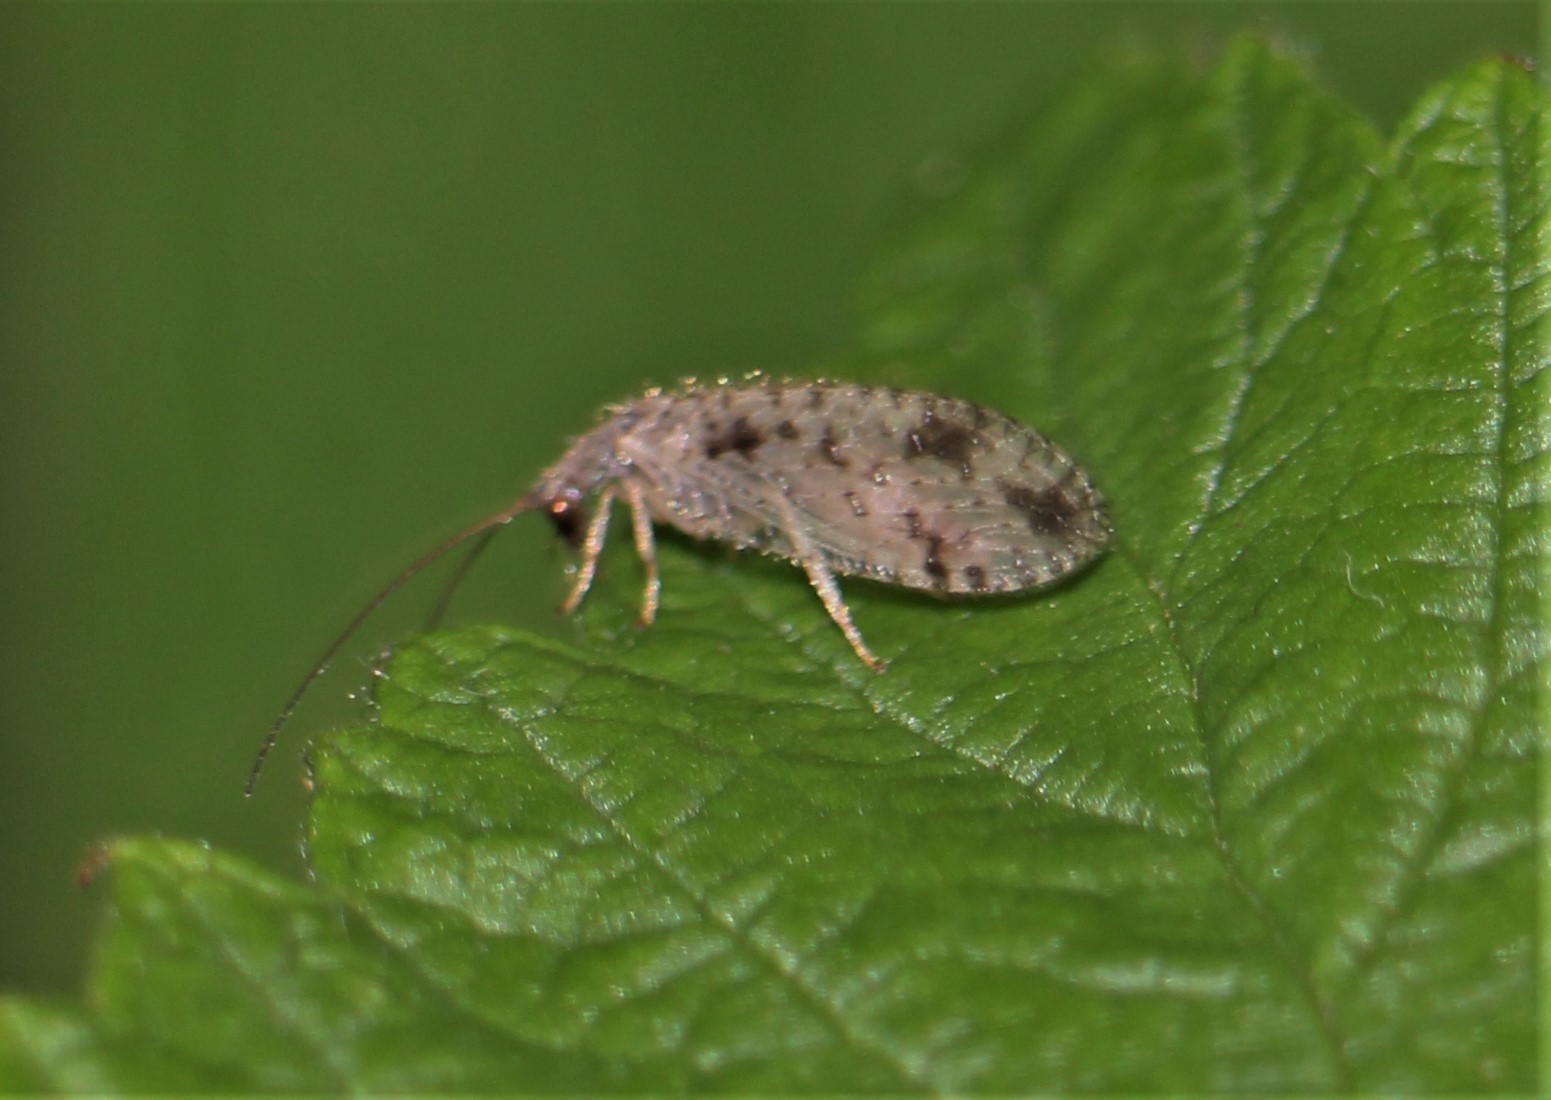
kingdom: Animalia
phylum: Arthropoda
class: Insecta
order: Neuroptera
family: Hemerobiidae
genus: Micromus
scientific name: Micromus variegatus
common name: Brown lacewing
